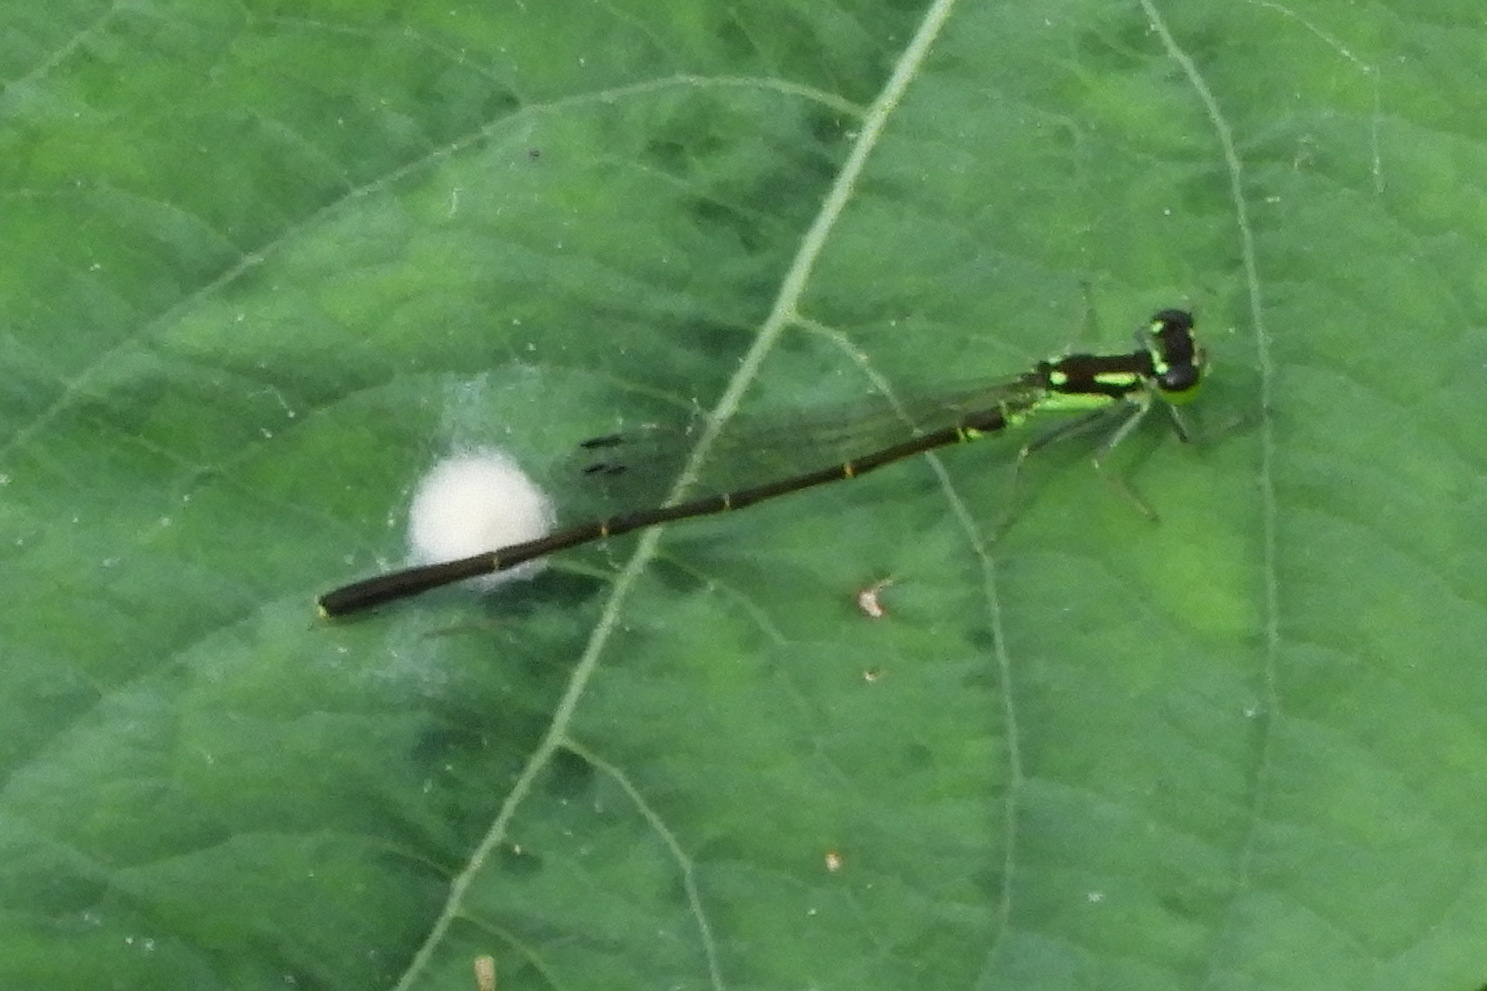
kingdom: Animalia
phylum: Arthropoda
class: Insecta
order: Odonata
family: Coenagrionidae
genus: Ischnura
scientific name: Ischnura posita
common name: Fragile forktail
